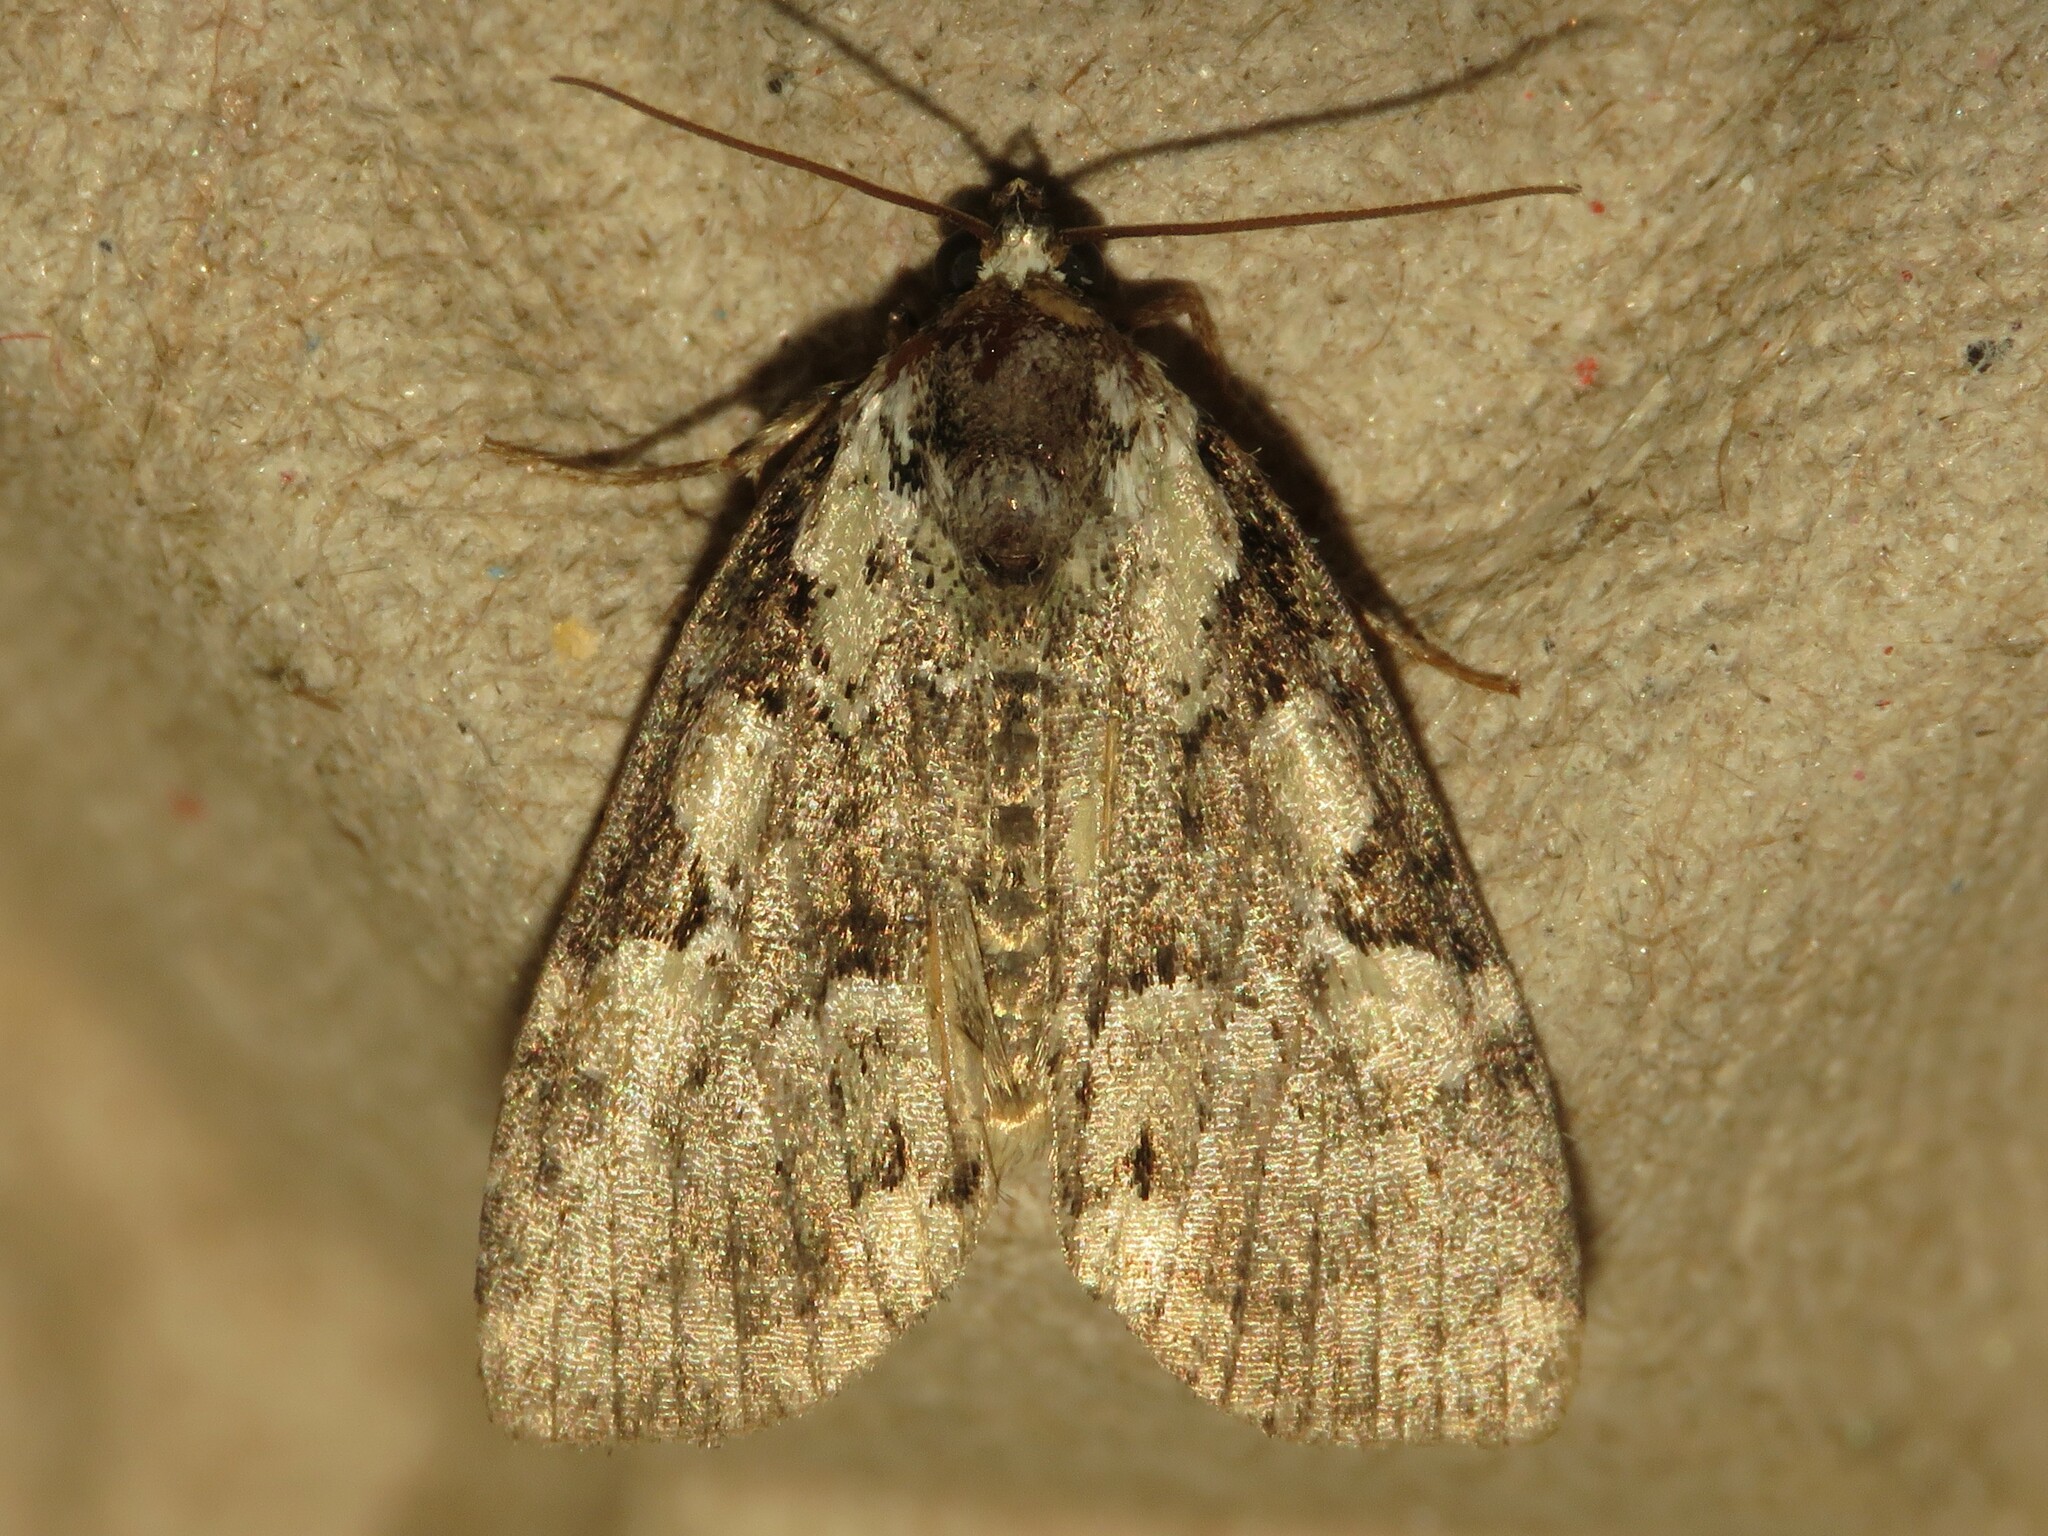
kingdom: Animalia
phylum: Arthropoda
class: Insecta
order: Lepidoptera
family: Noctuidae
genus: Leuconycta
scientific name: Leuconycta lepidula
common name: Marbled-green leuconycta moth
